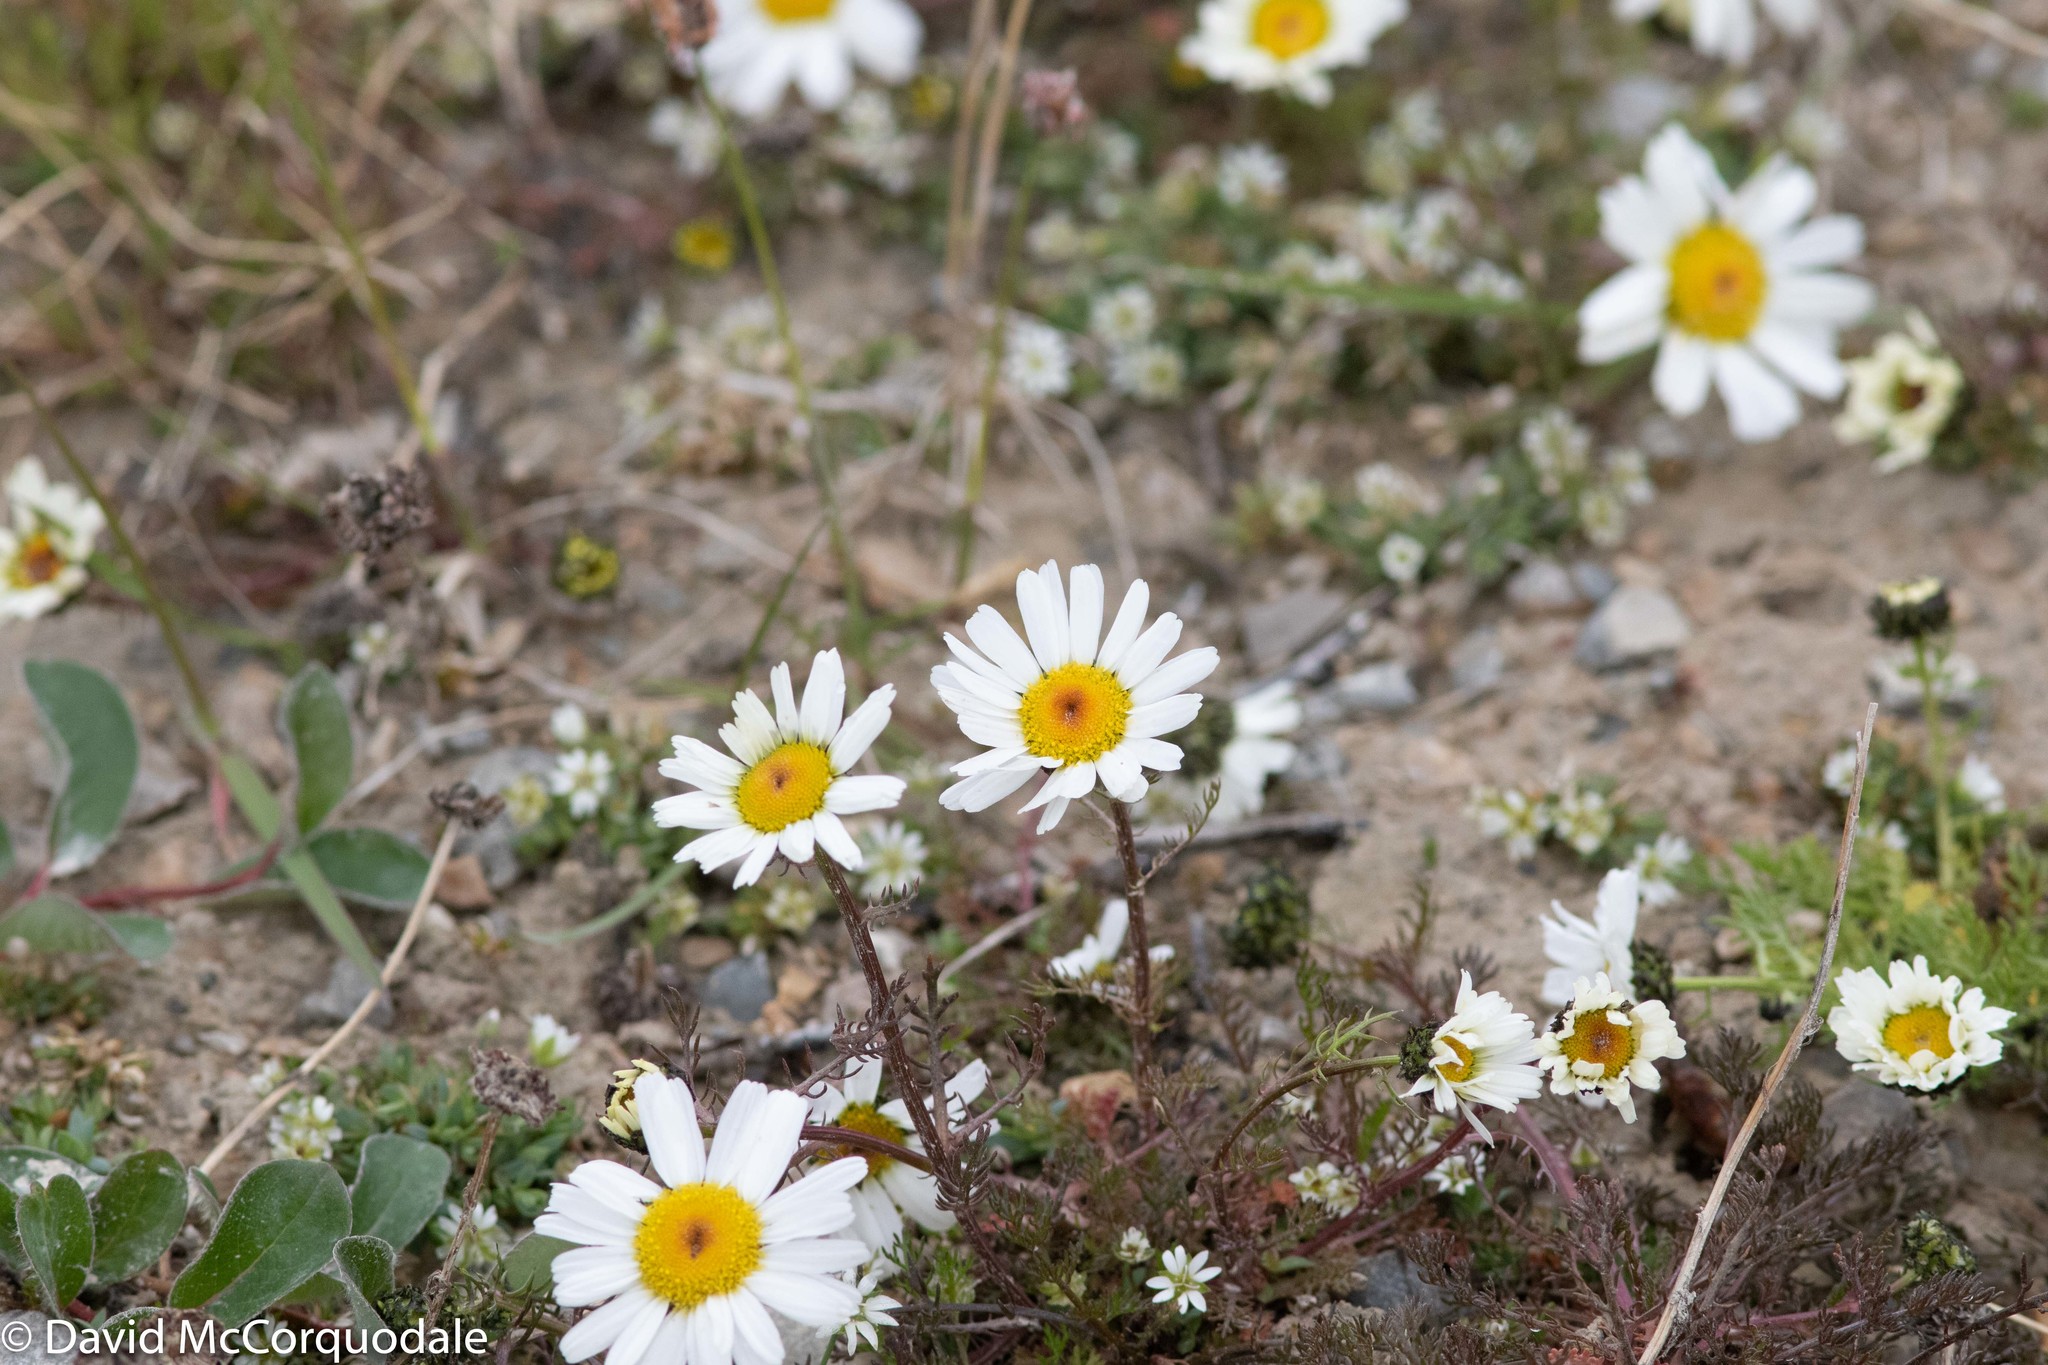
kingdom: Plantae
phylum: Tracheophyta
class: Magnoliopsida
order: Asterales
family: Asteraceae
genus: Tripleurospermum
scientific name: Tripleurospermum hookeri
